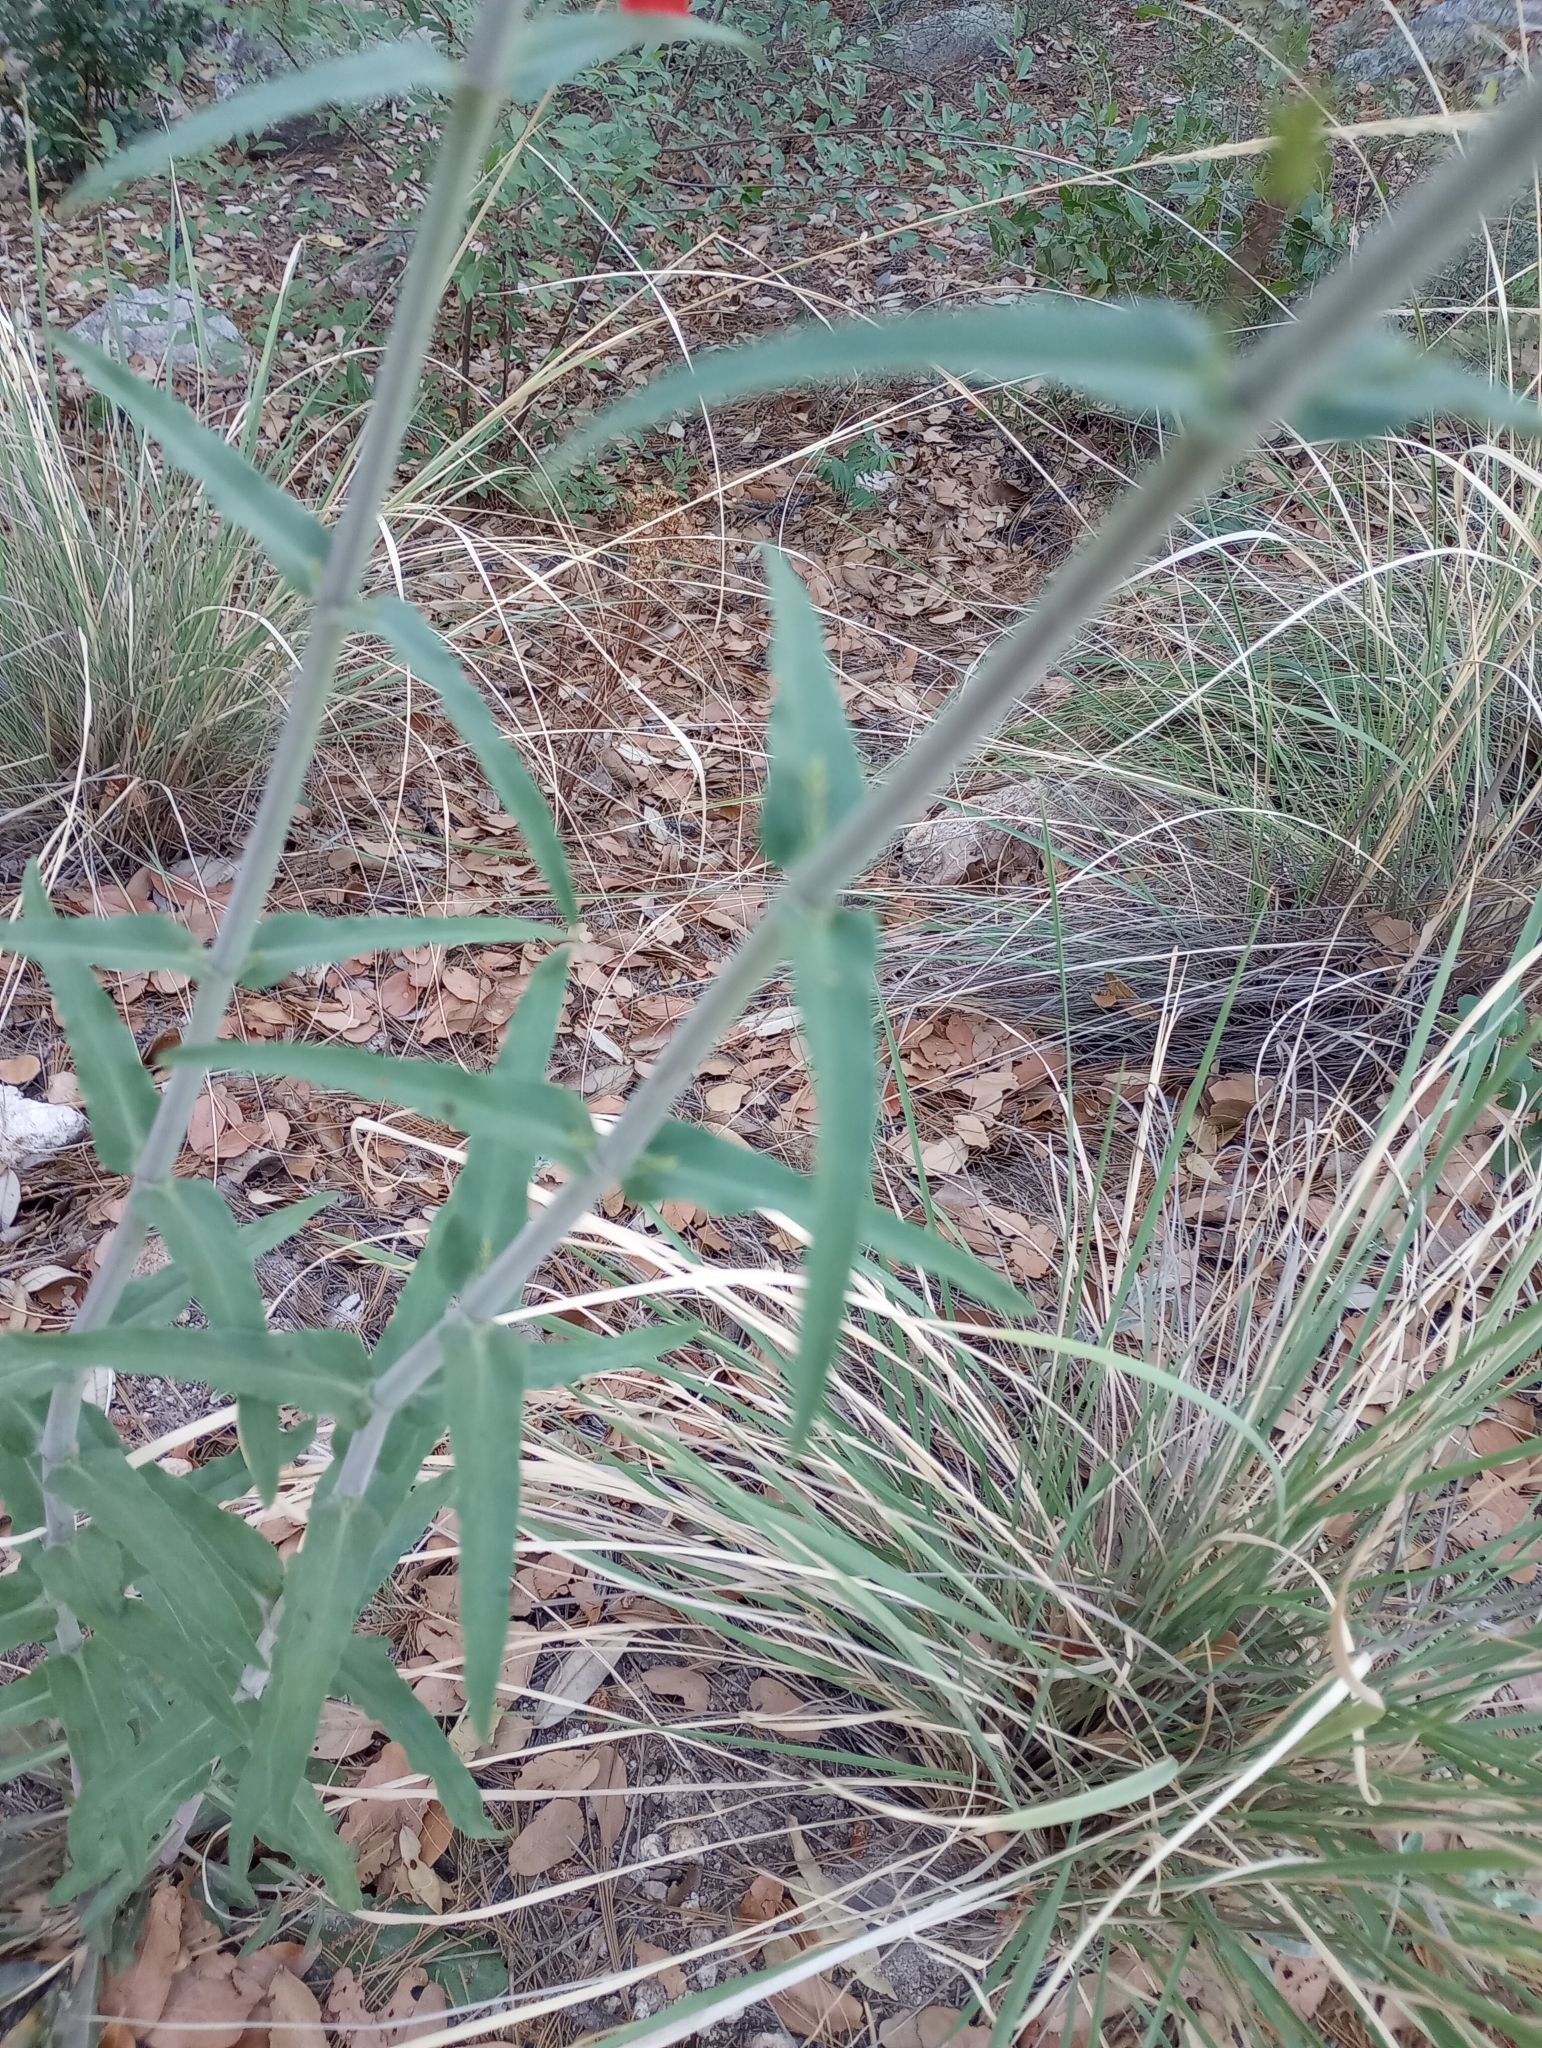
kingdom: Plantae
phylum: Tracheophyta
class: Magnoliopsida
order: Lamiales
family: Plantaginaceae
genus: Penstemon
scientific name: Penstemon barbatus
